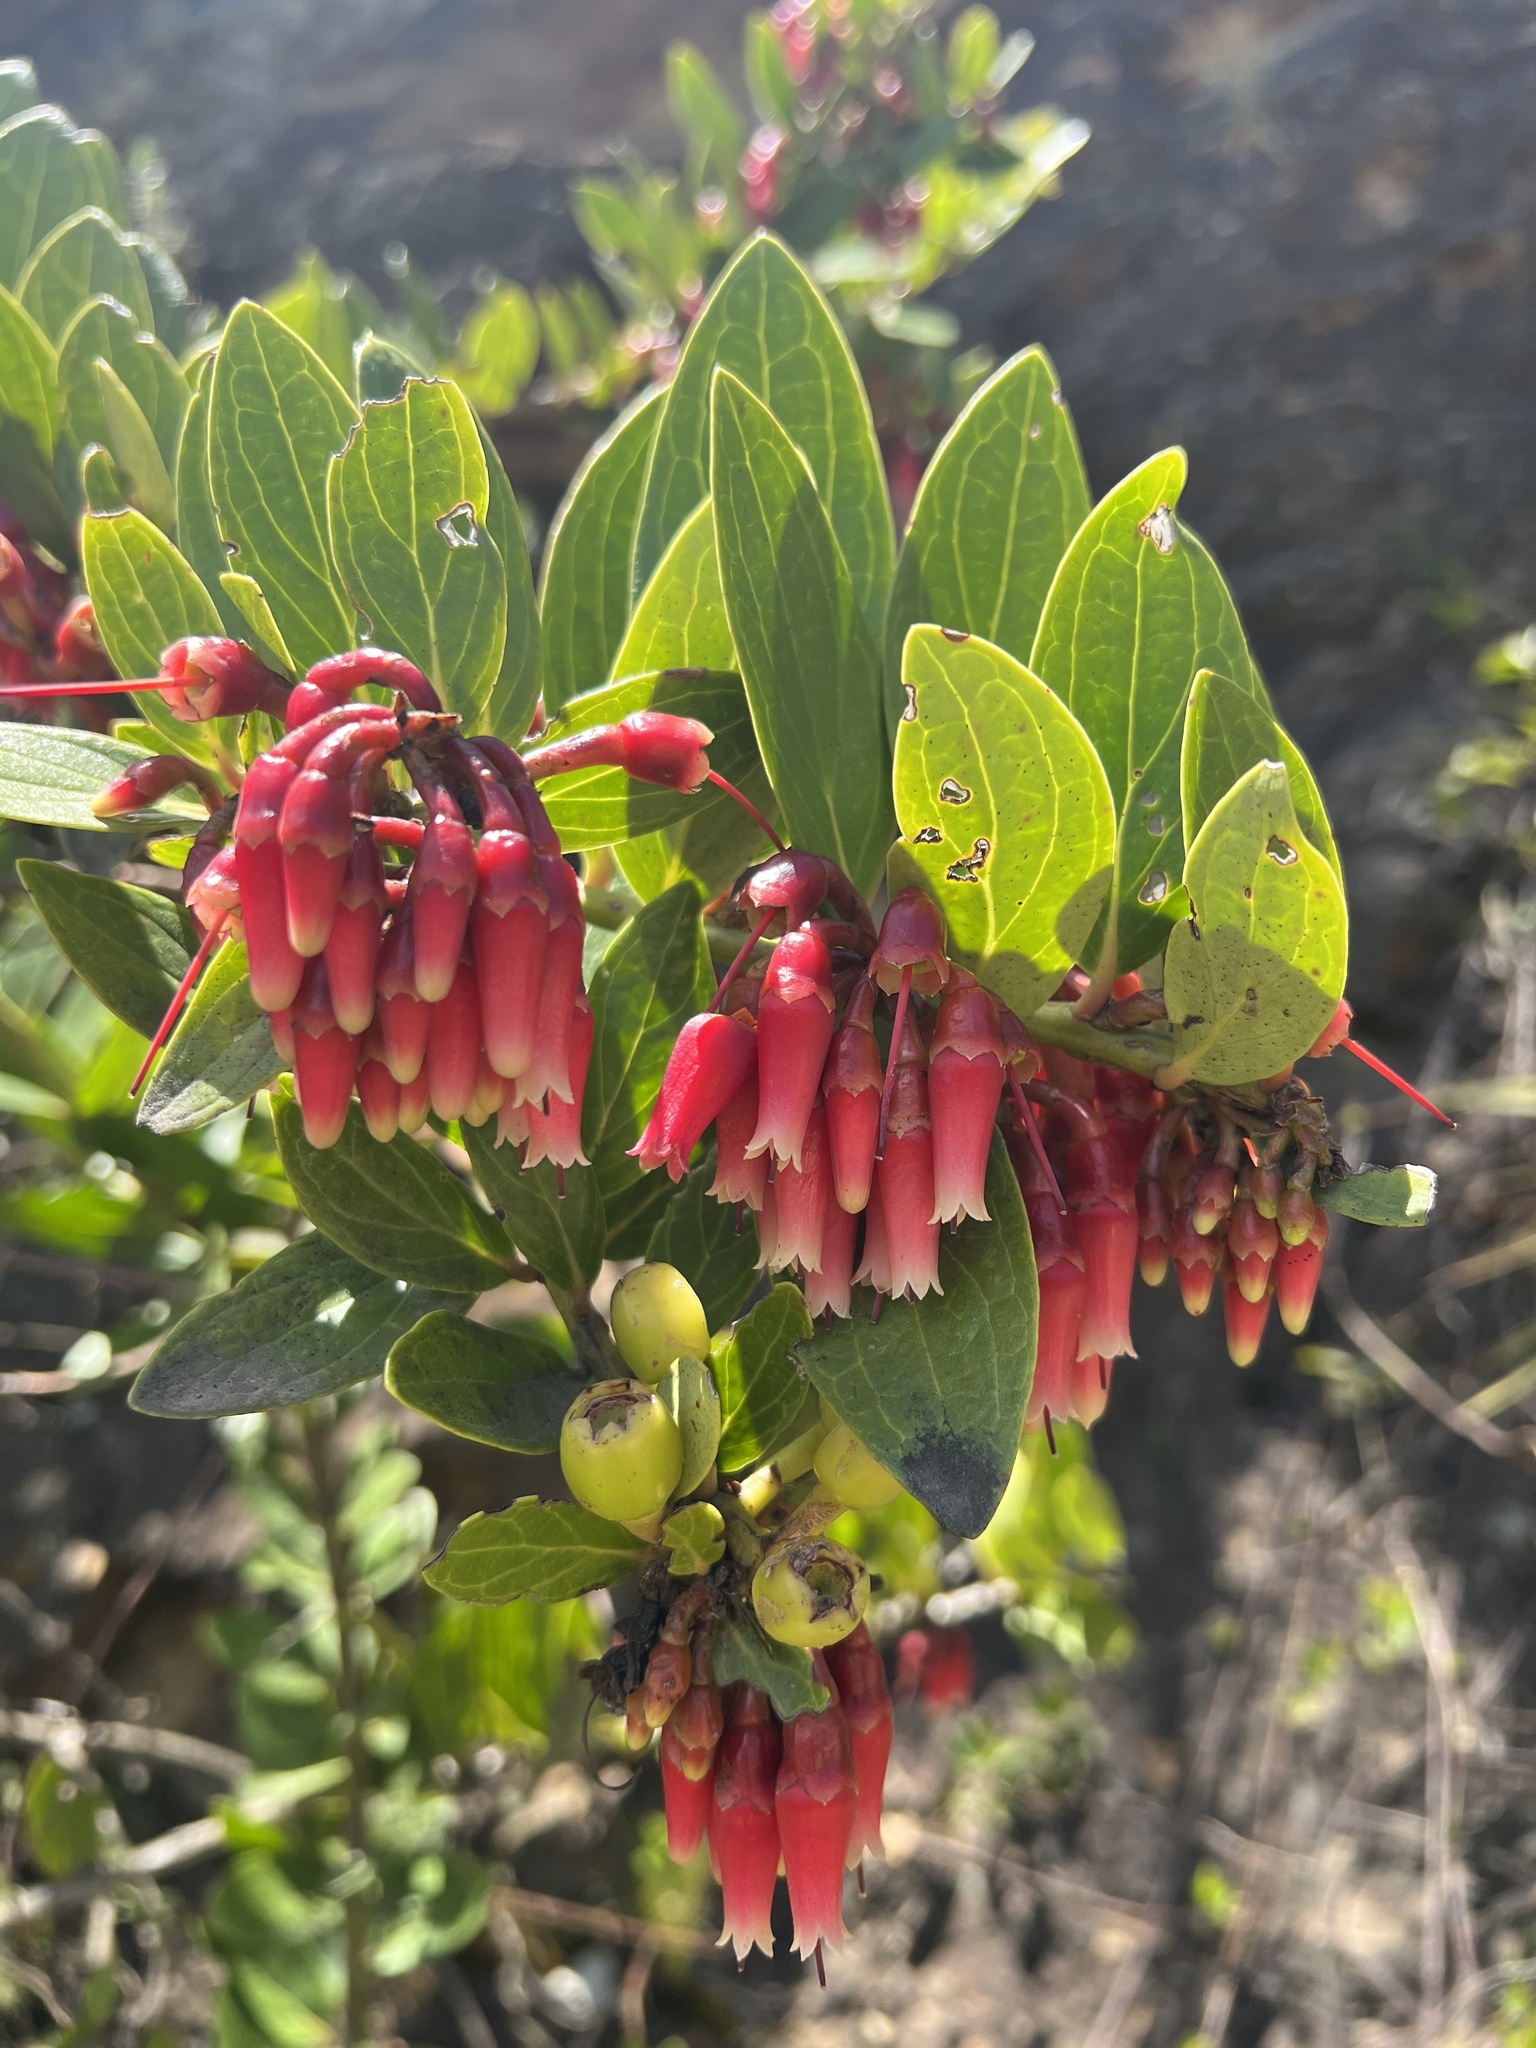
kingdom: Plantae
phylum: Tracheophyta
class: Magnoliopsida
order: Ericales
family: Ericaceae
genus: Macleania
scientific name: Macleania rupestris
